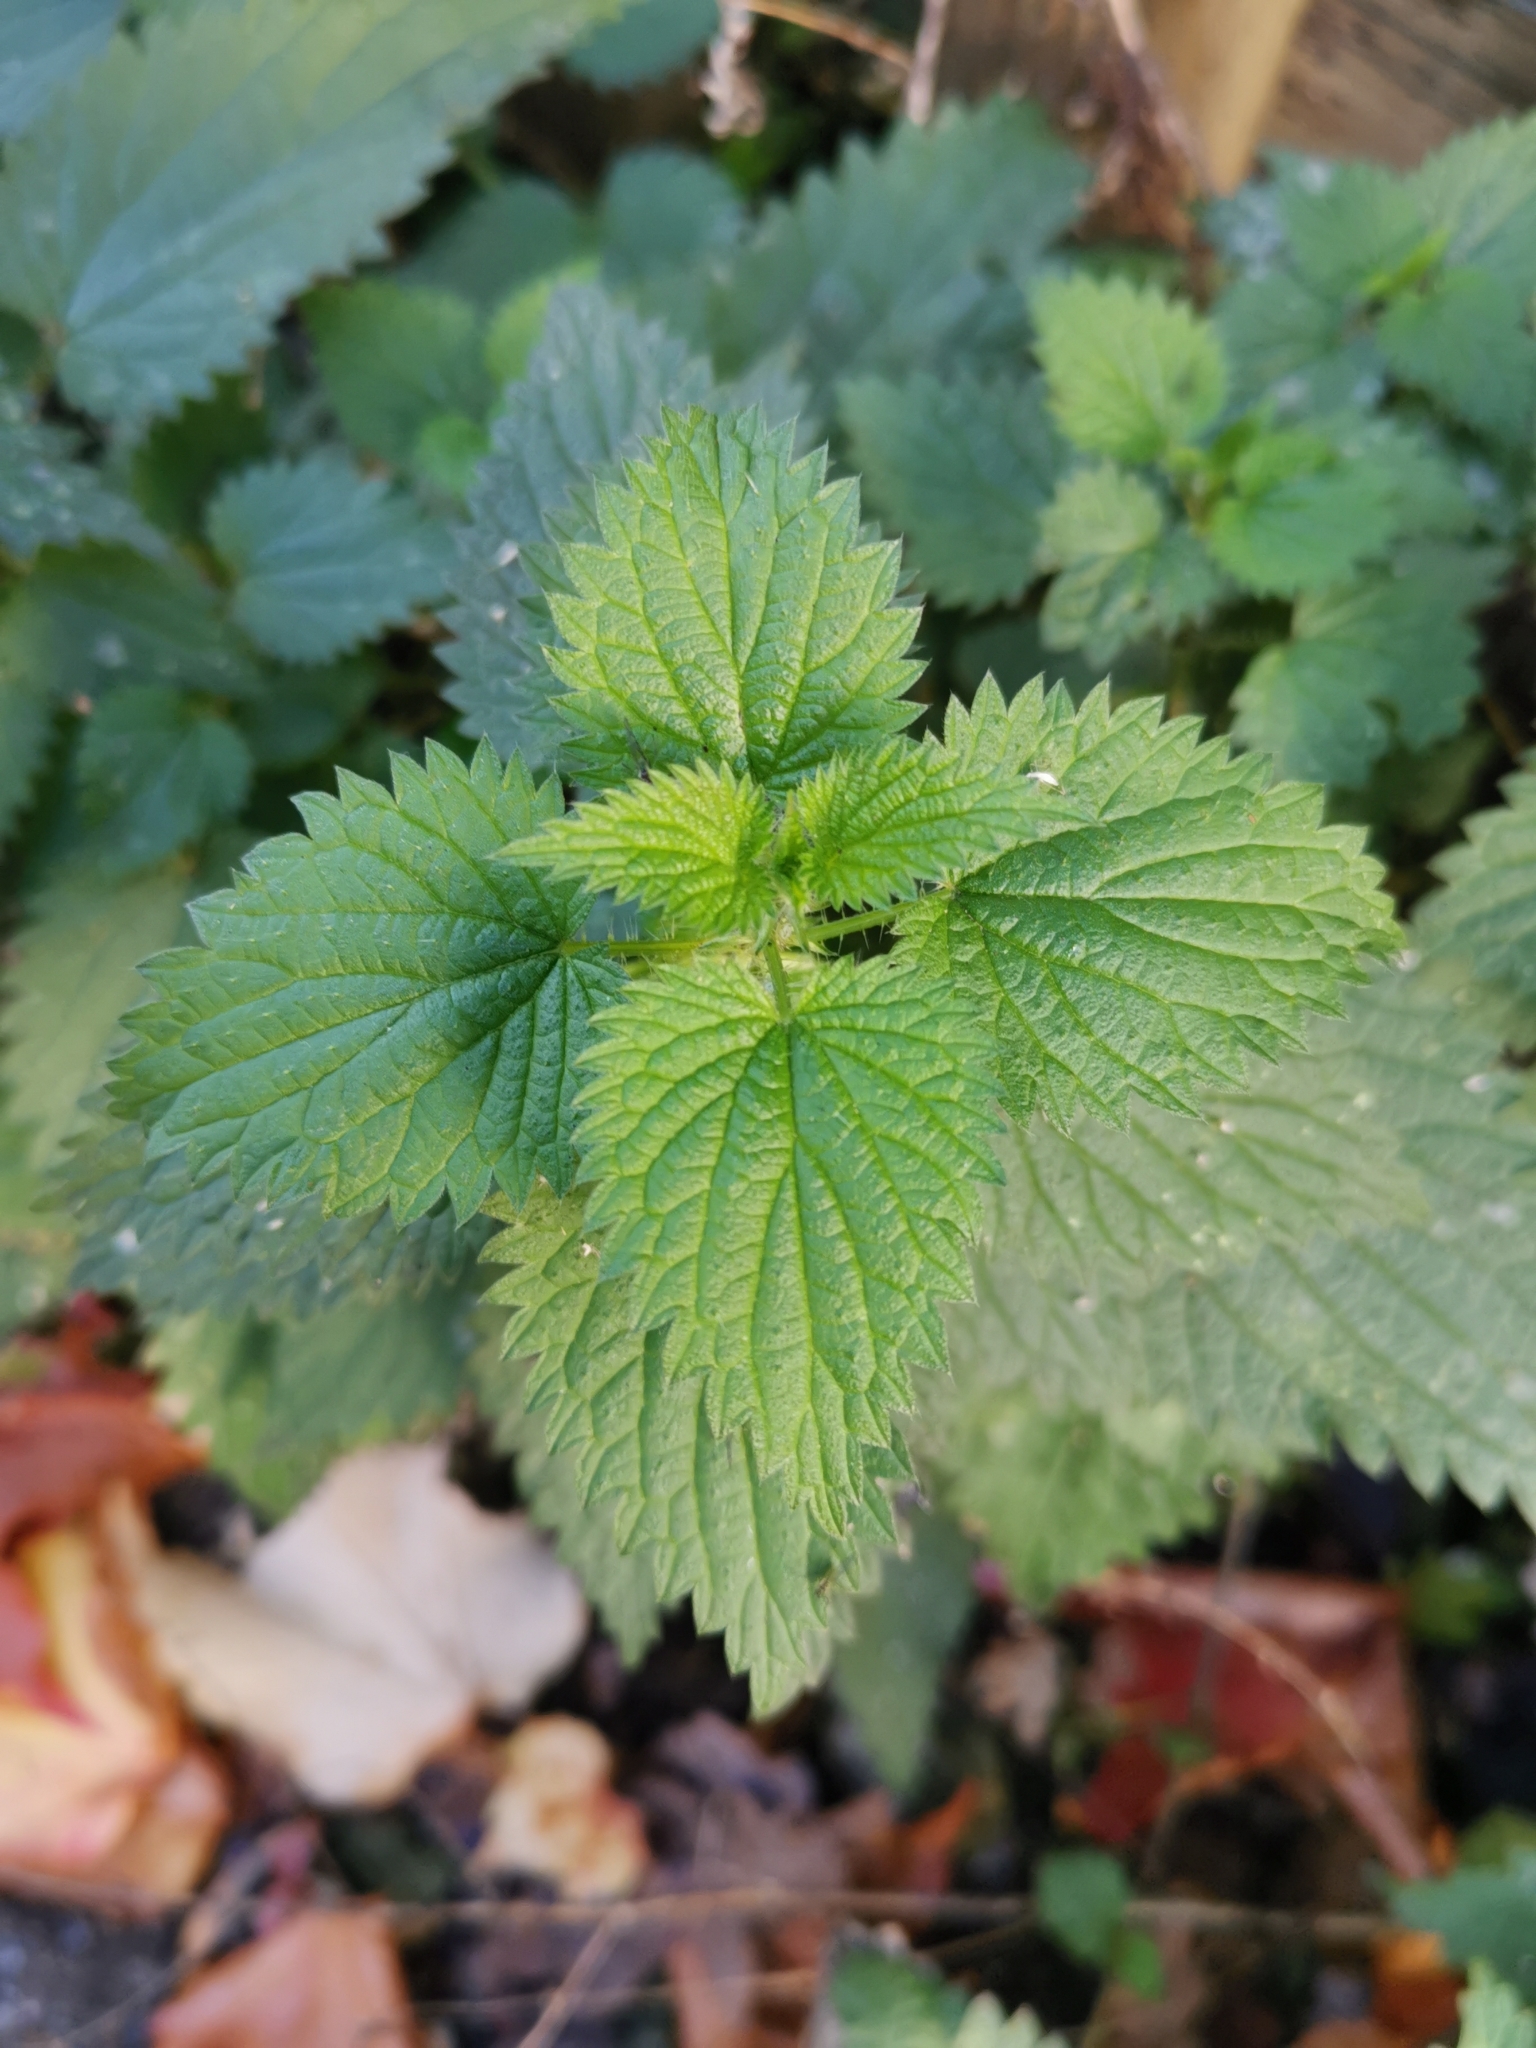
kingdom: Plantae
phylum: Tracheophyta
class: Magnoliopsida
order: Rosales
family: Urticaceae
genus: Urtica
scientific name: Urtica dioica
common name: Common nettle
